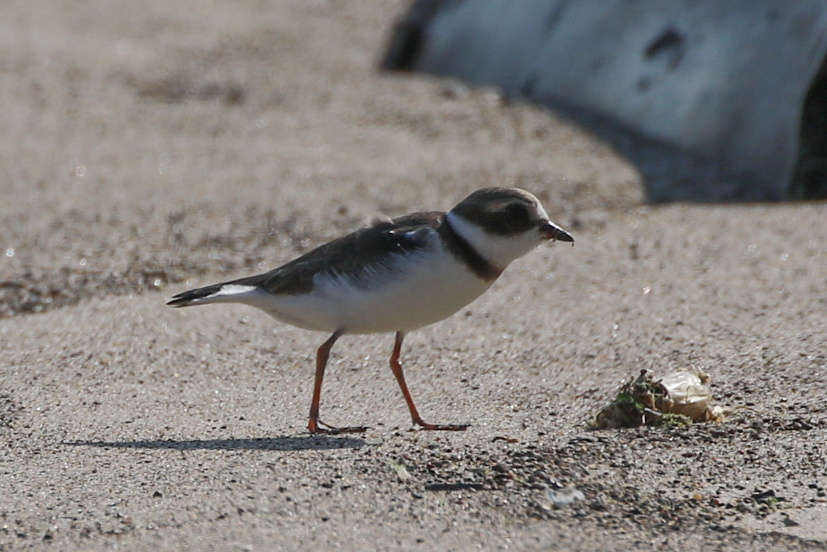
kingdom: Animalia
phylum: Chordata
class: Aves
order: Charadriiformes
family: Charadriidae
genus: Charadrius
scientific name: Charadrius semipalmatus
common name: Semipalmated plover
